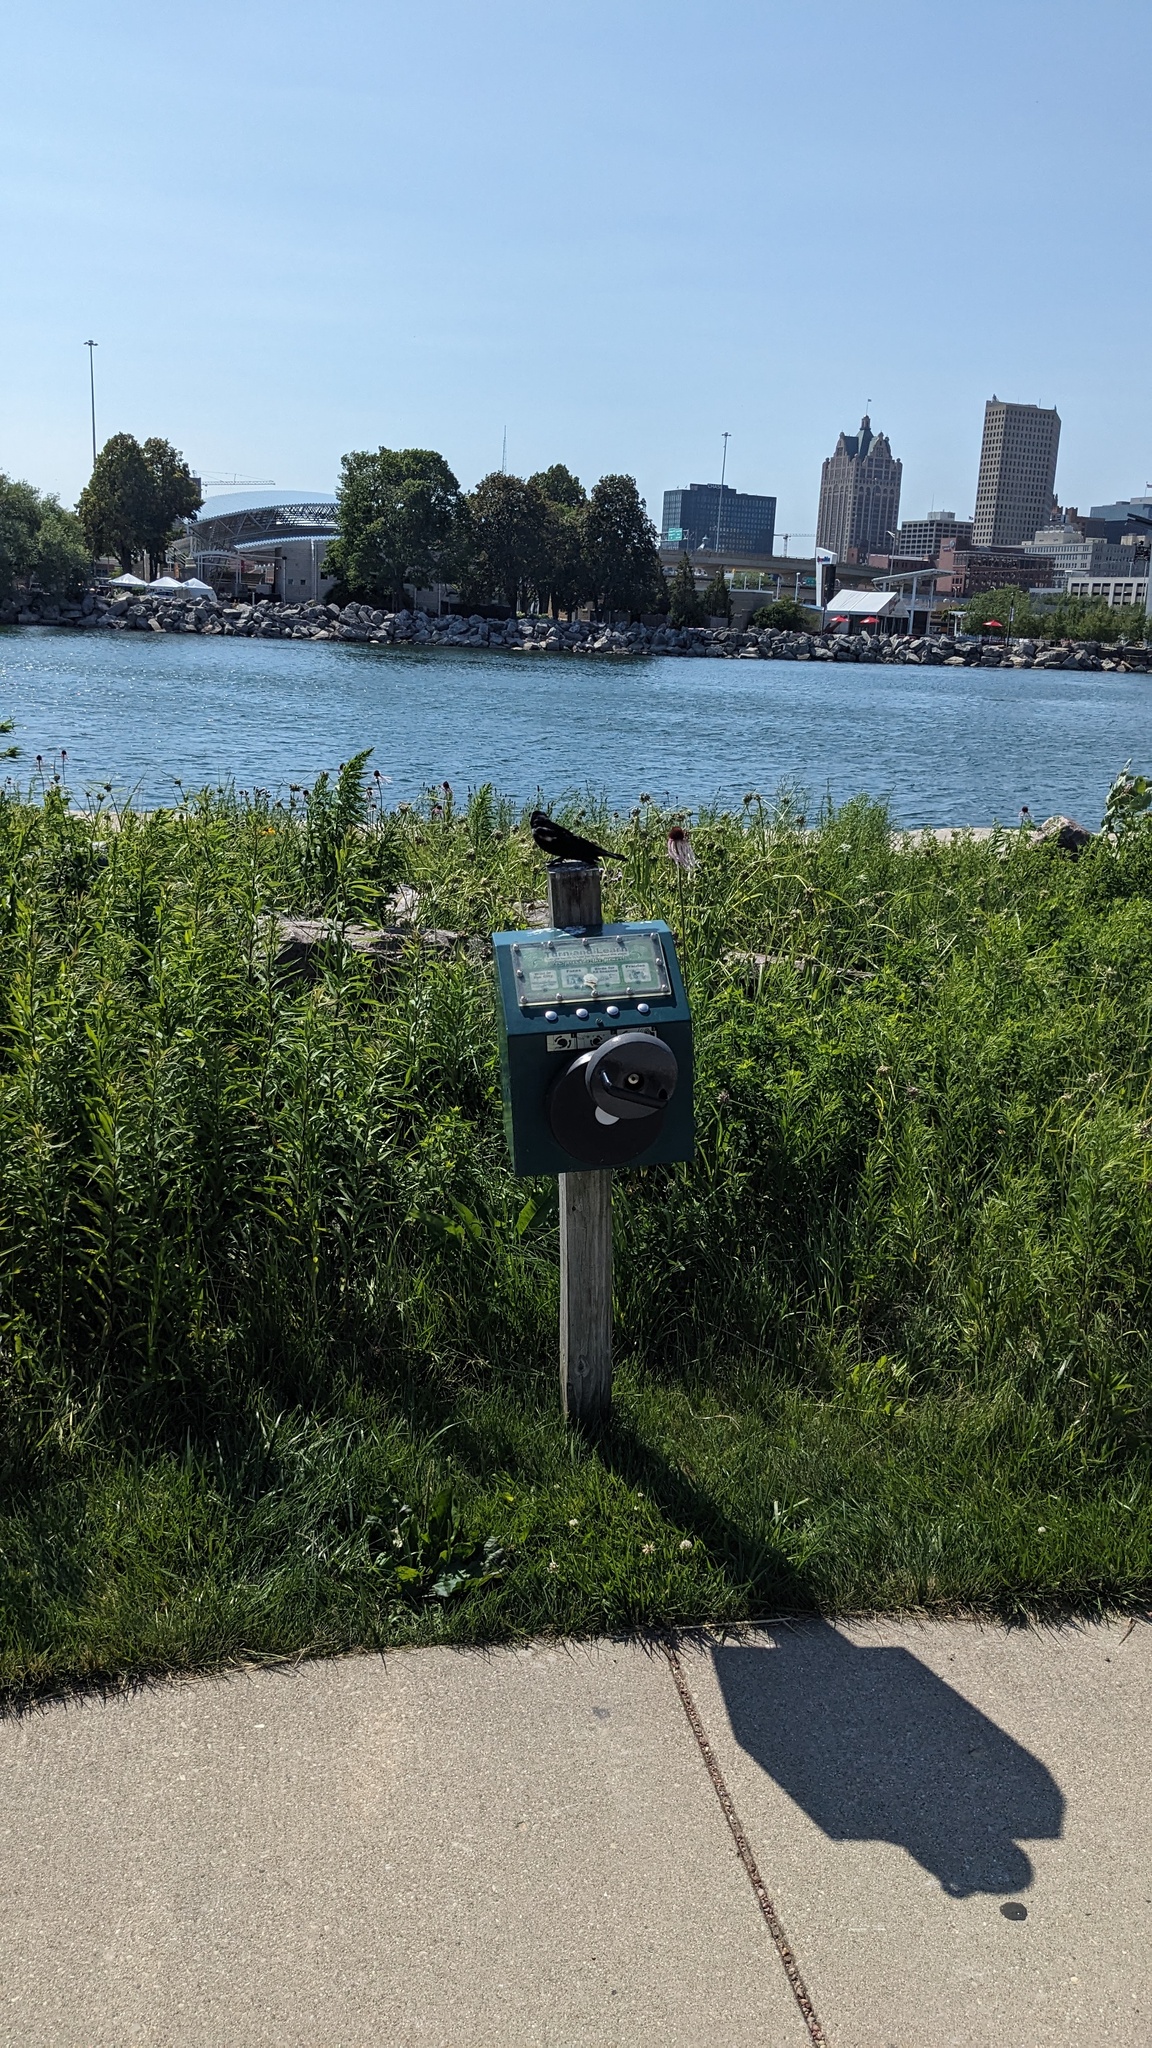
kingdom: Animalia
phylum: Chordata
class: Aves
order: Passeriformes
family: Icteridae
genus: Agelaius
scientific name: Agelaius phoeniceus
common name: Red-winged blackbird
